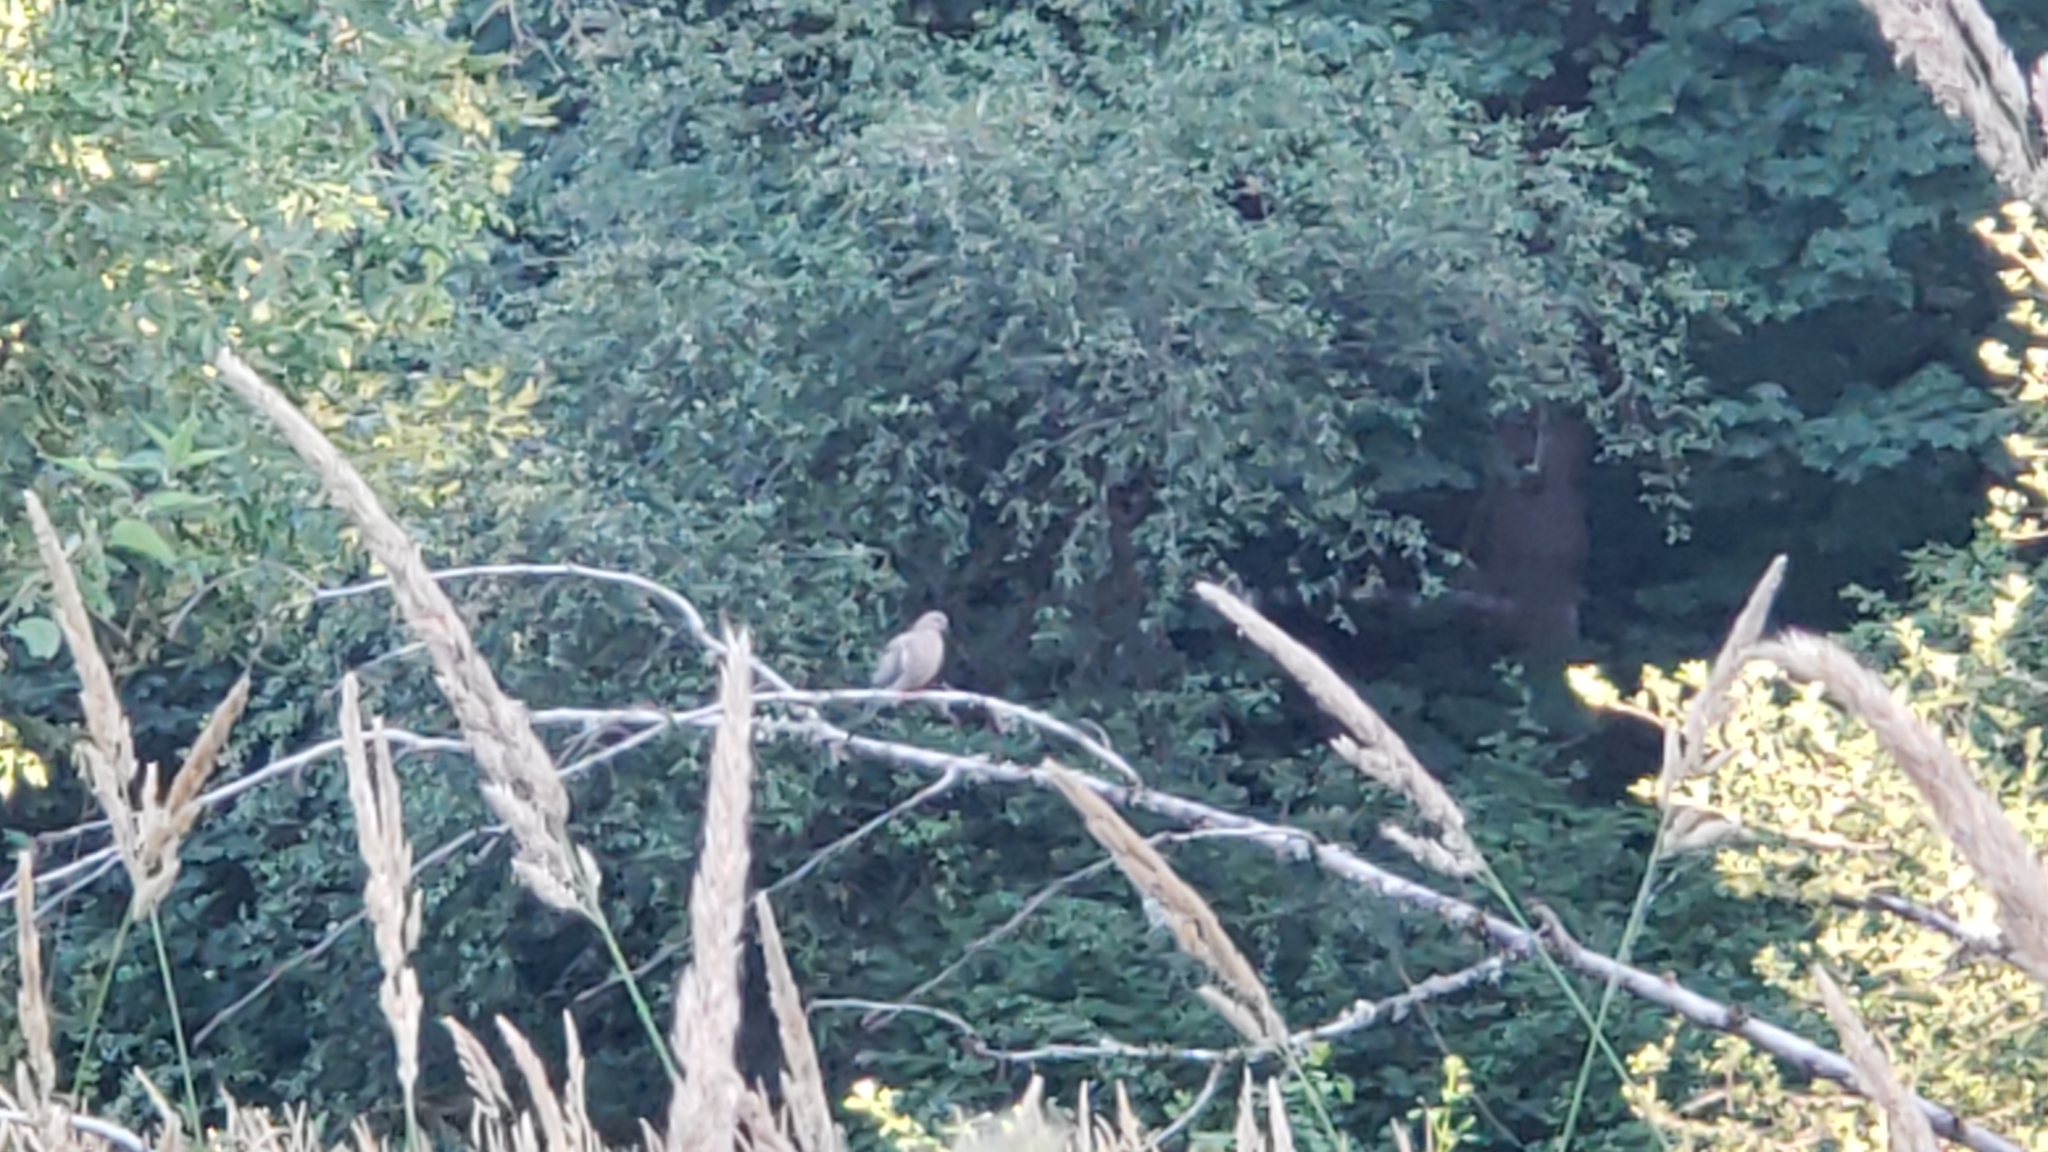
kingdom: Animalia
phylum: Chordata
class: Aves
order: Columbiformes
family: Columbidae
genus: Zenaida
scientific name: Zenaida macroura
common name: Mourning dove
